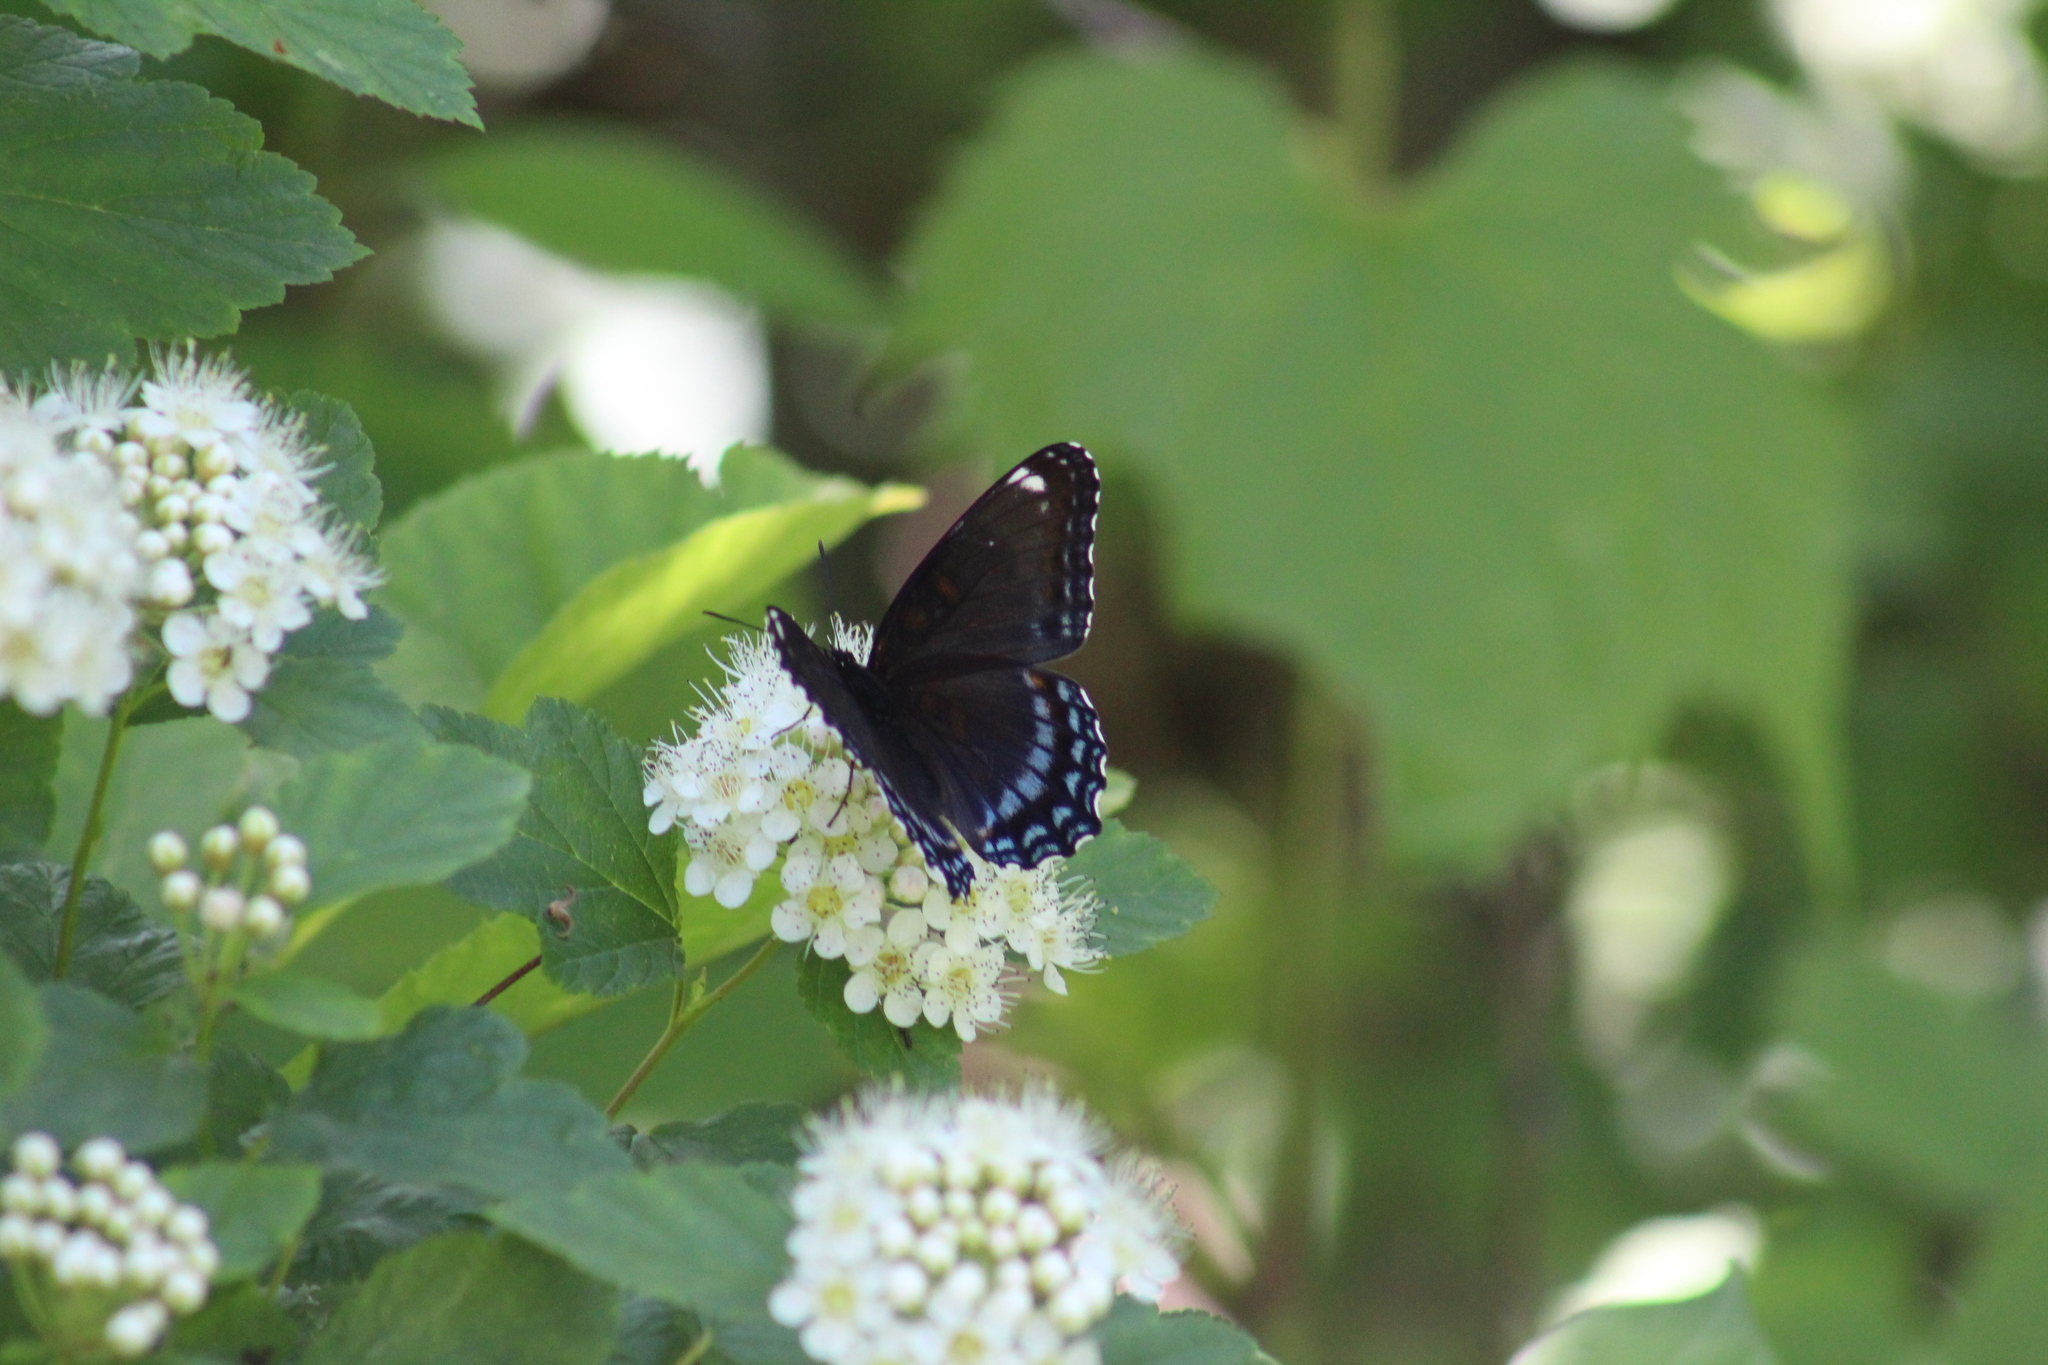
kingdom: Animalia
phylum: Arthropoda
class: Insecta
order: Lepidoptera
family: Nymphalidae
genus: Limenitis
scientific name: Limenitis astyanax
